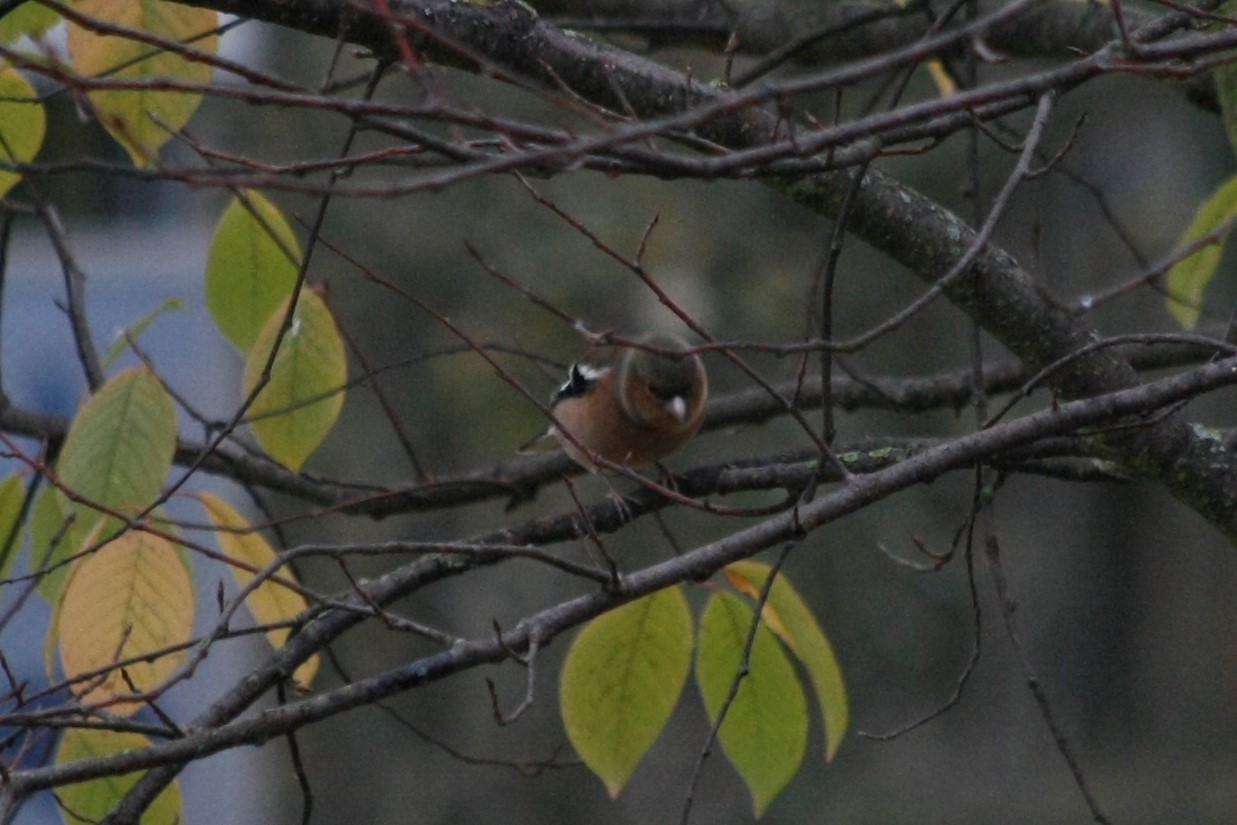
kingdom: Animalia
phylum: Chordata
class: Aves
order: Passeriformes
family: Fringillidae
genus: Fringilla
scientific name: Fringilla coelebs
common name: Common chaffinch
